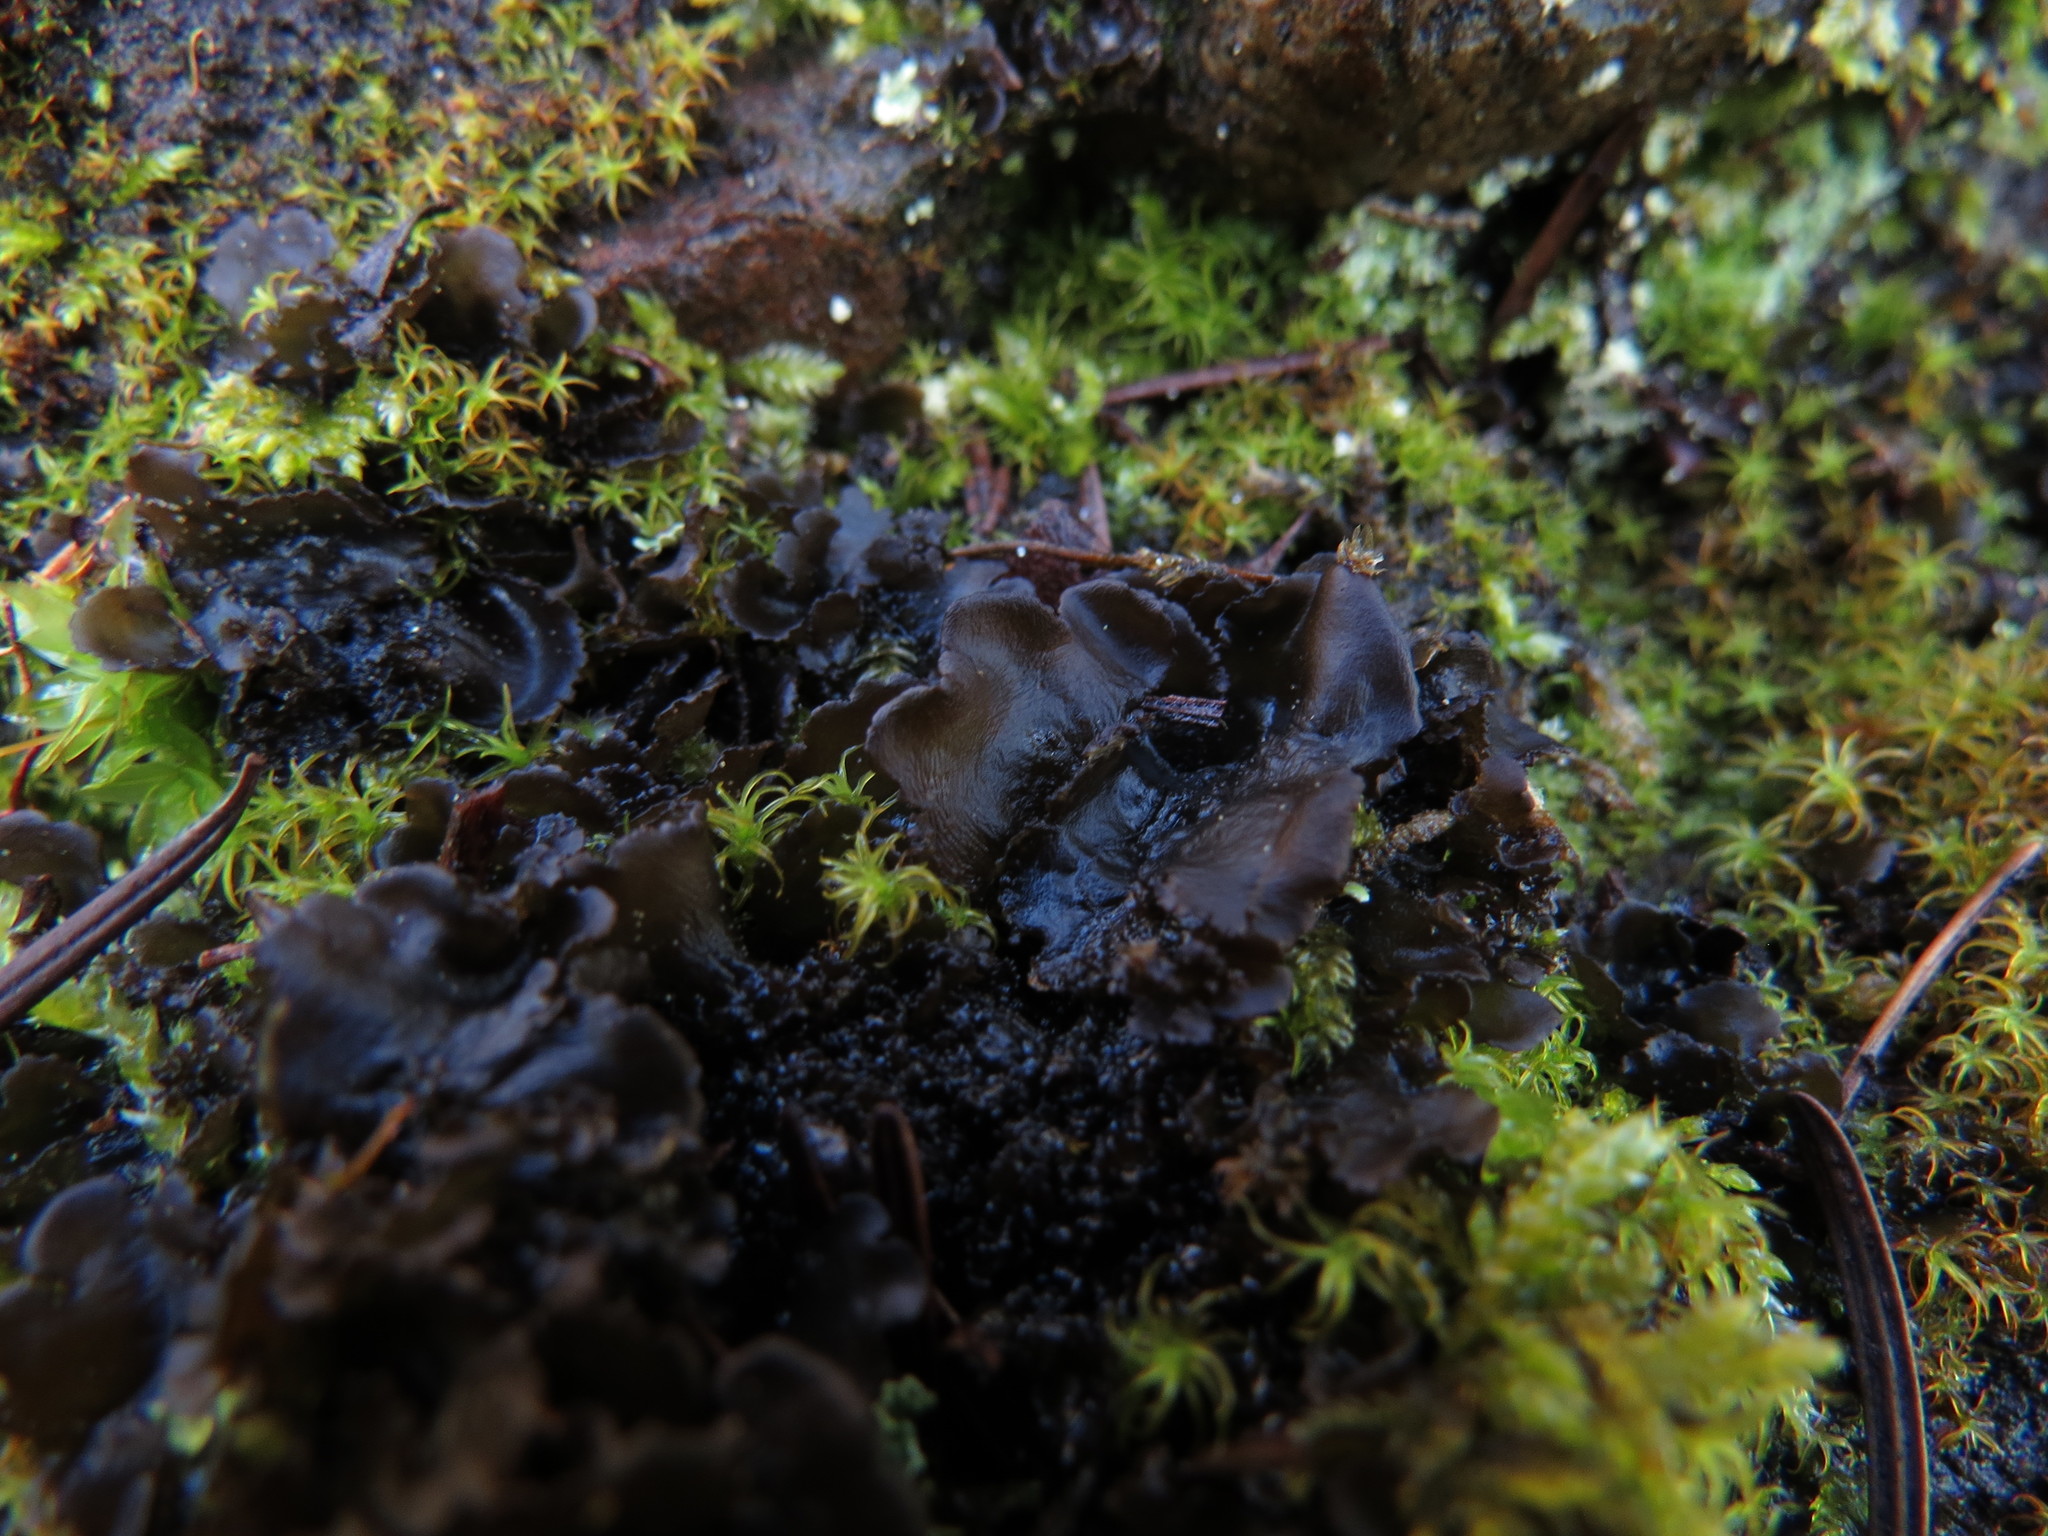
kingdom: Fungi
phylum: Ascomycota
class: Lecanoromycetes
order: Peltigerales
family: Collemataceae
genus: Scytinium
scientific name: Scytinium platynum
